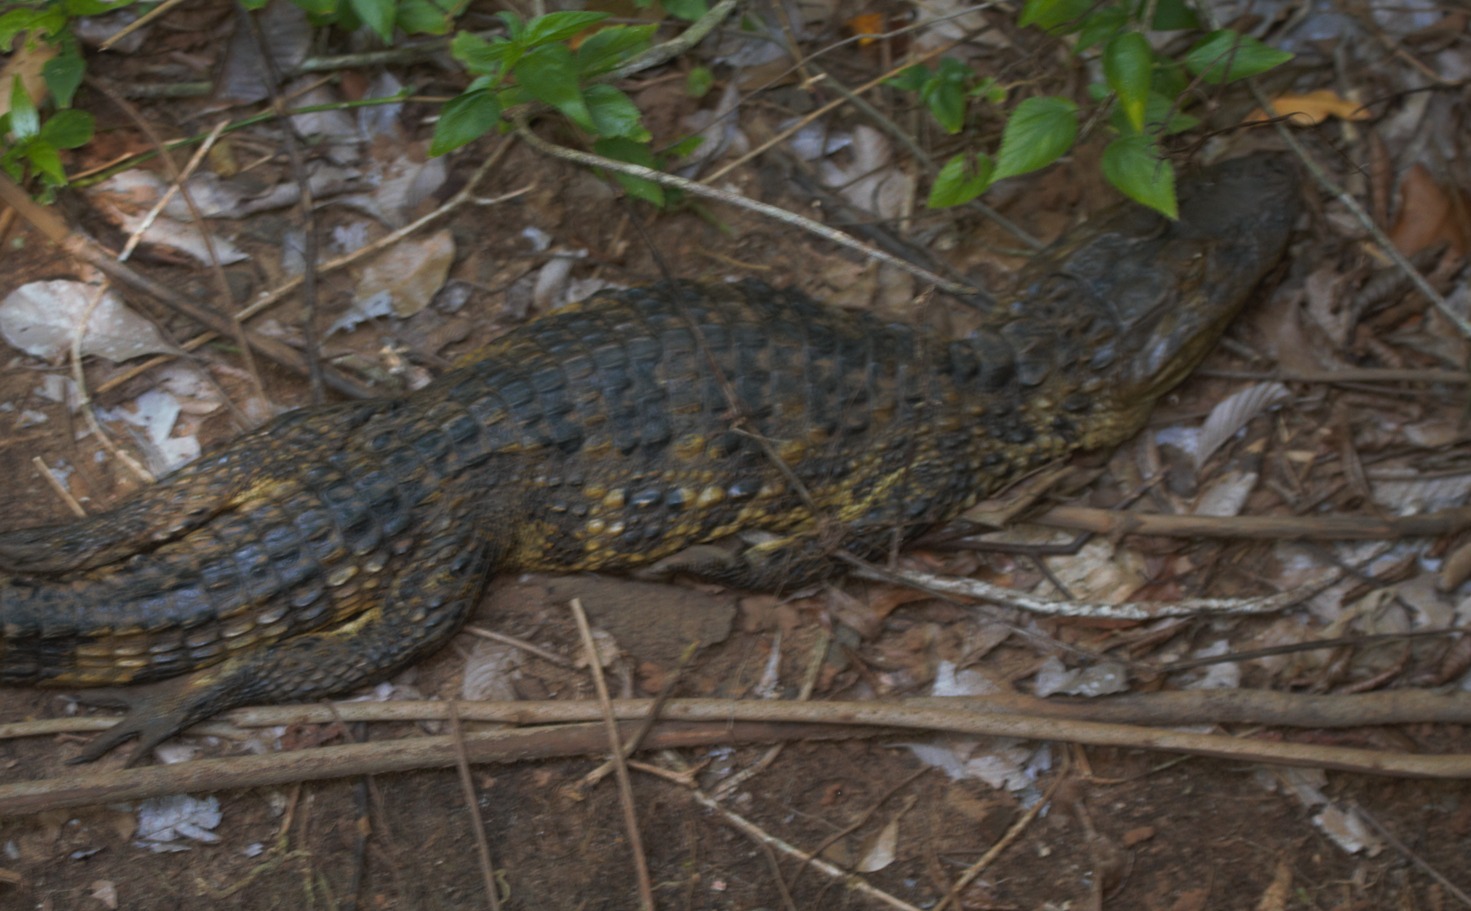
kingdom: Animalia
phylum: Chordata
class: Crocodylia
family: Alligatoridae
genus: Caiman
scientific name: Caiman latirostris
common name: Broad-snouted caiman
